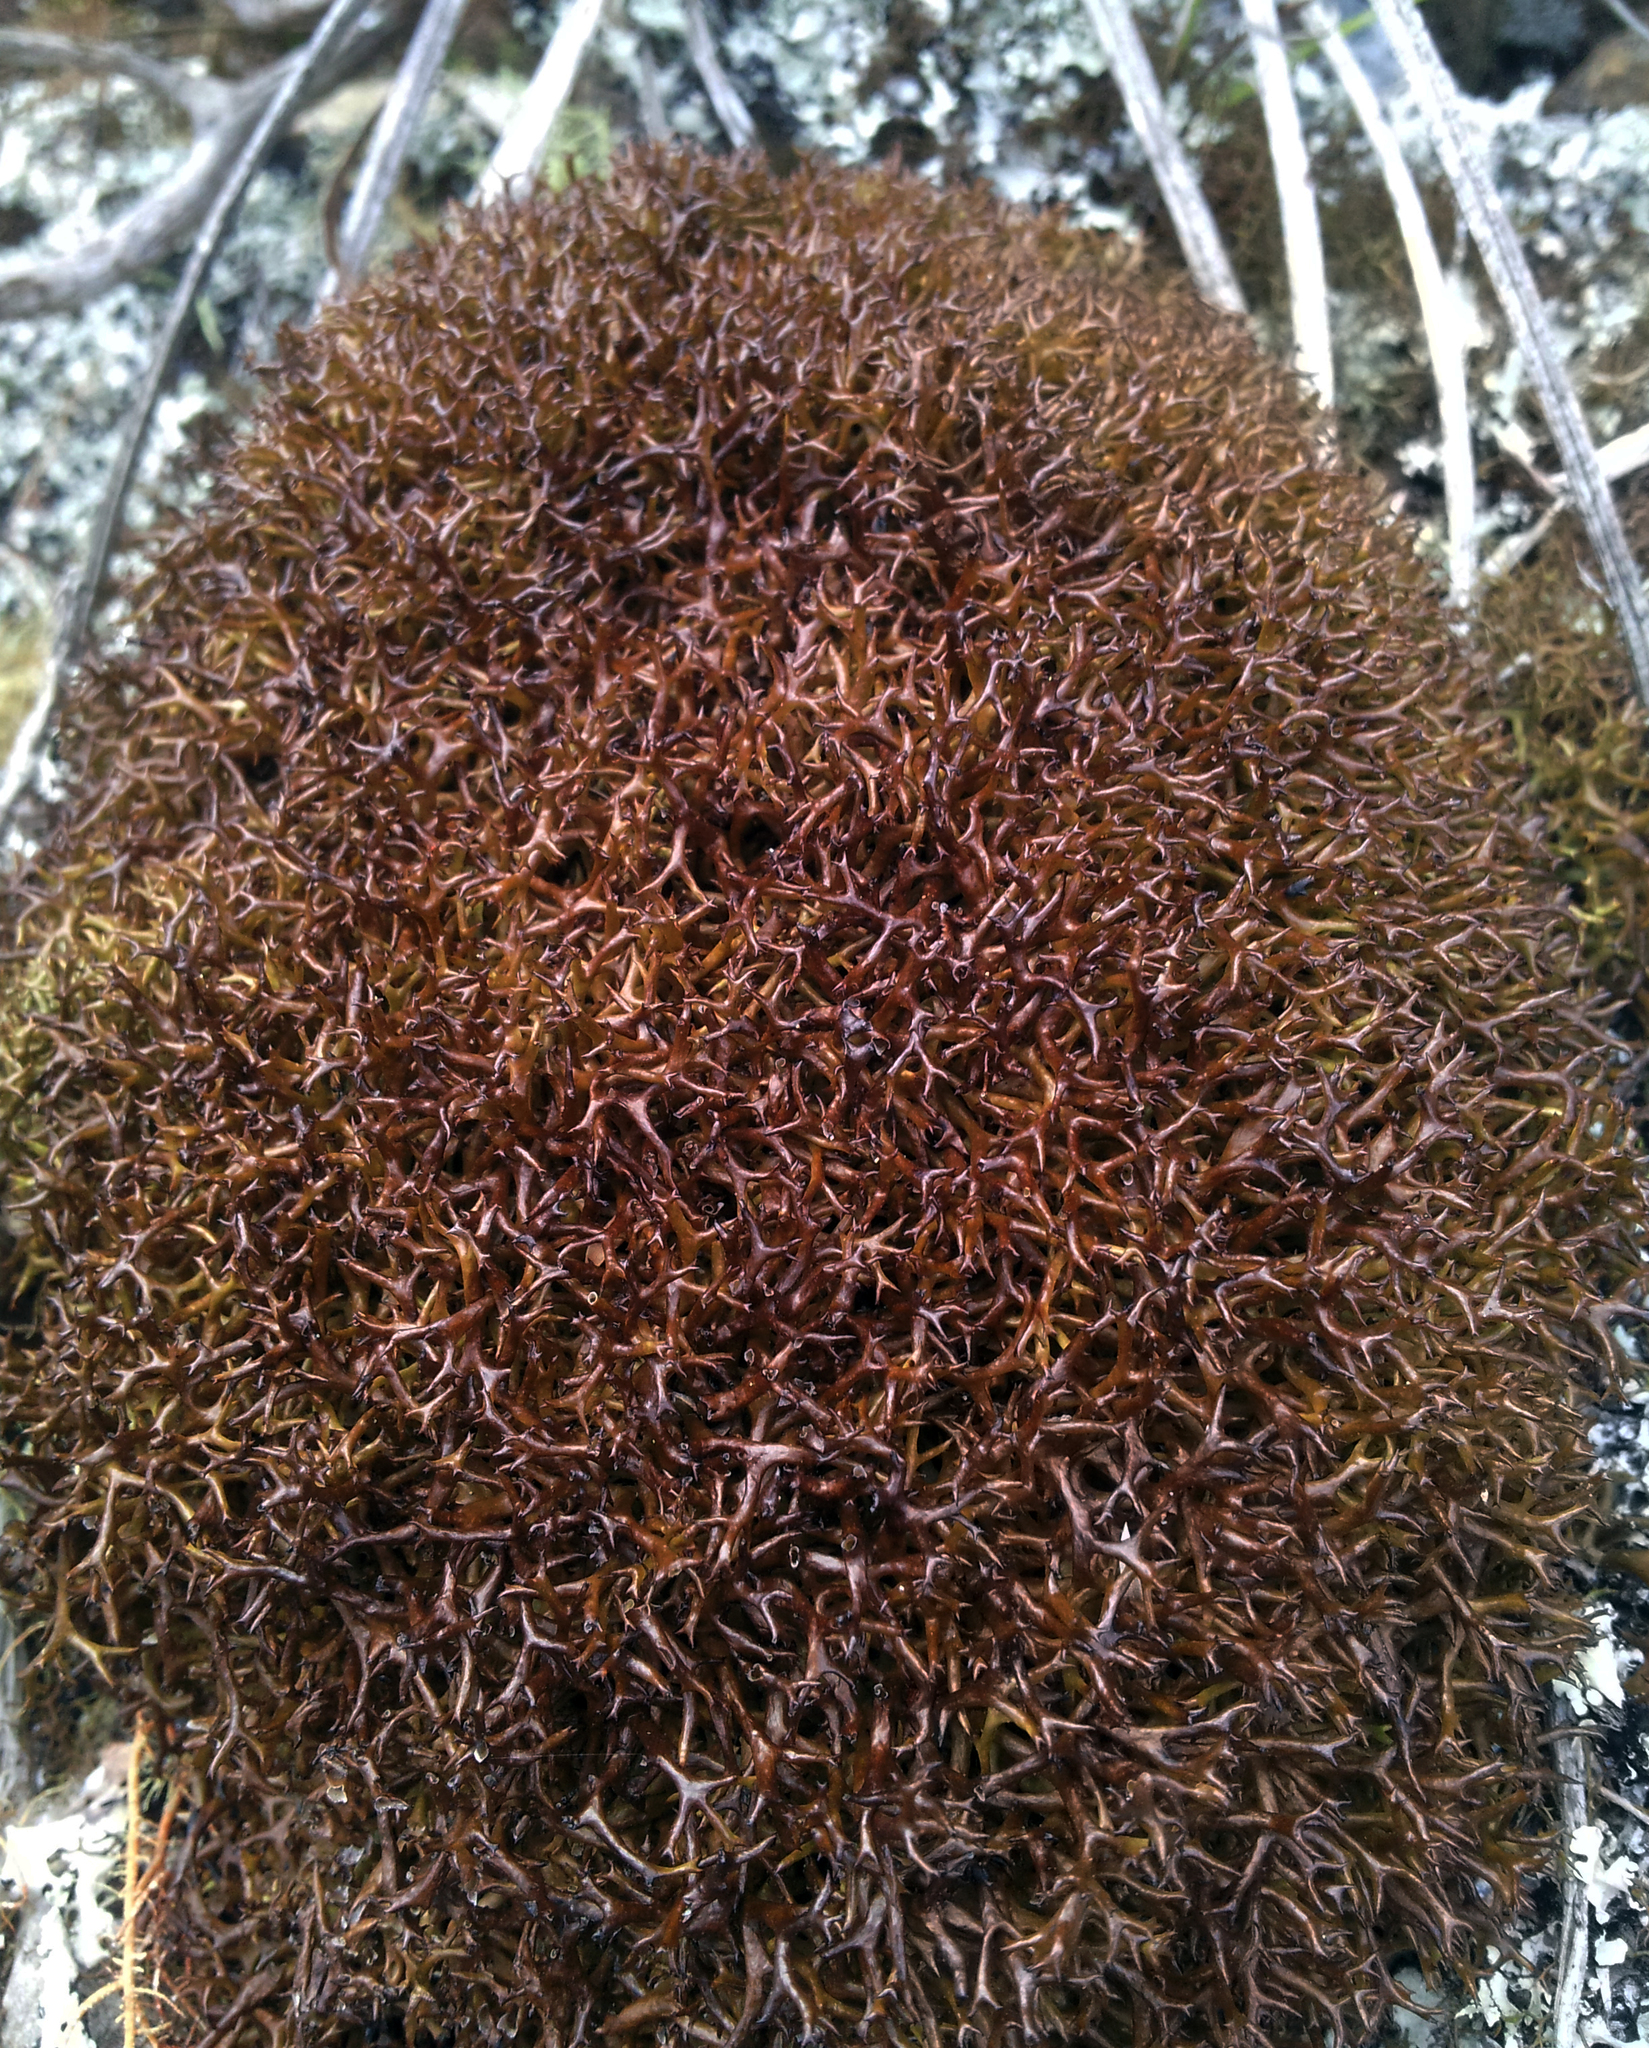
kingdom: Fungi
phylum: Ascomycota
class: Lecanoromycetes
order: Lecanorales
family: Cladoniaceae
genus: Cladia
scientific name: Cladia aggregata
